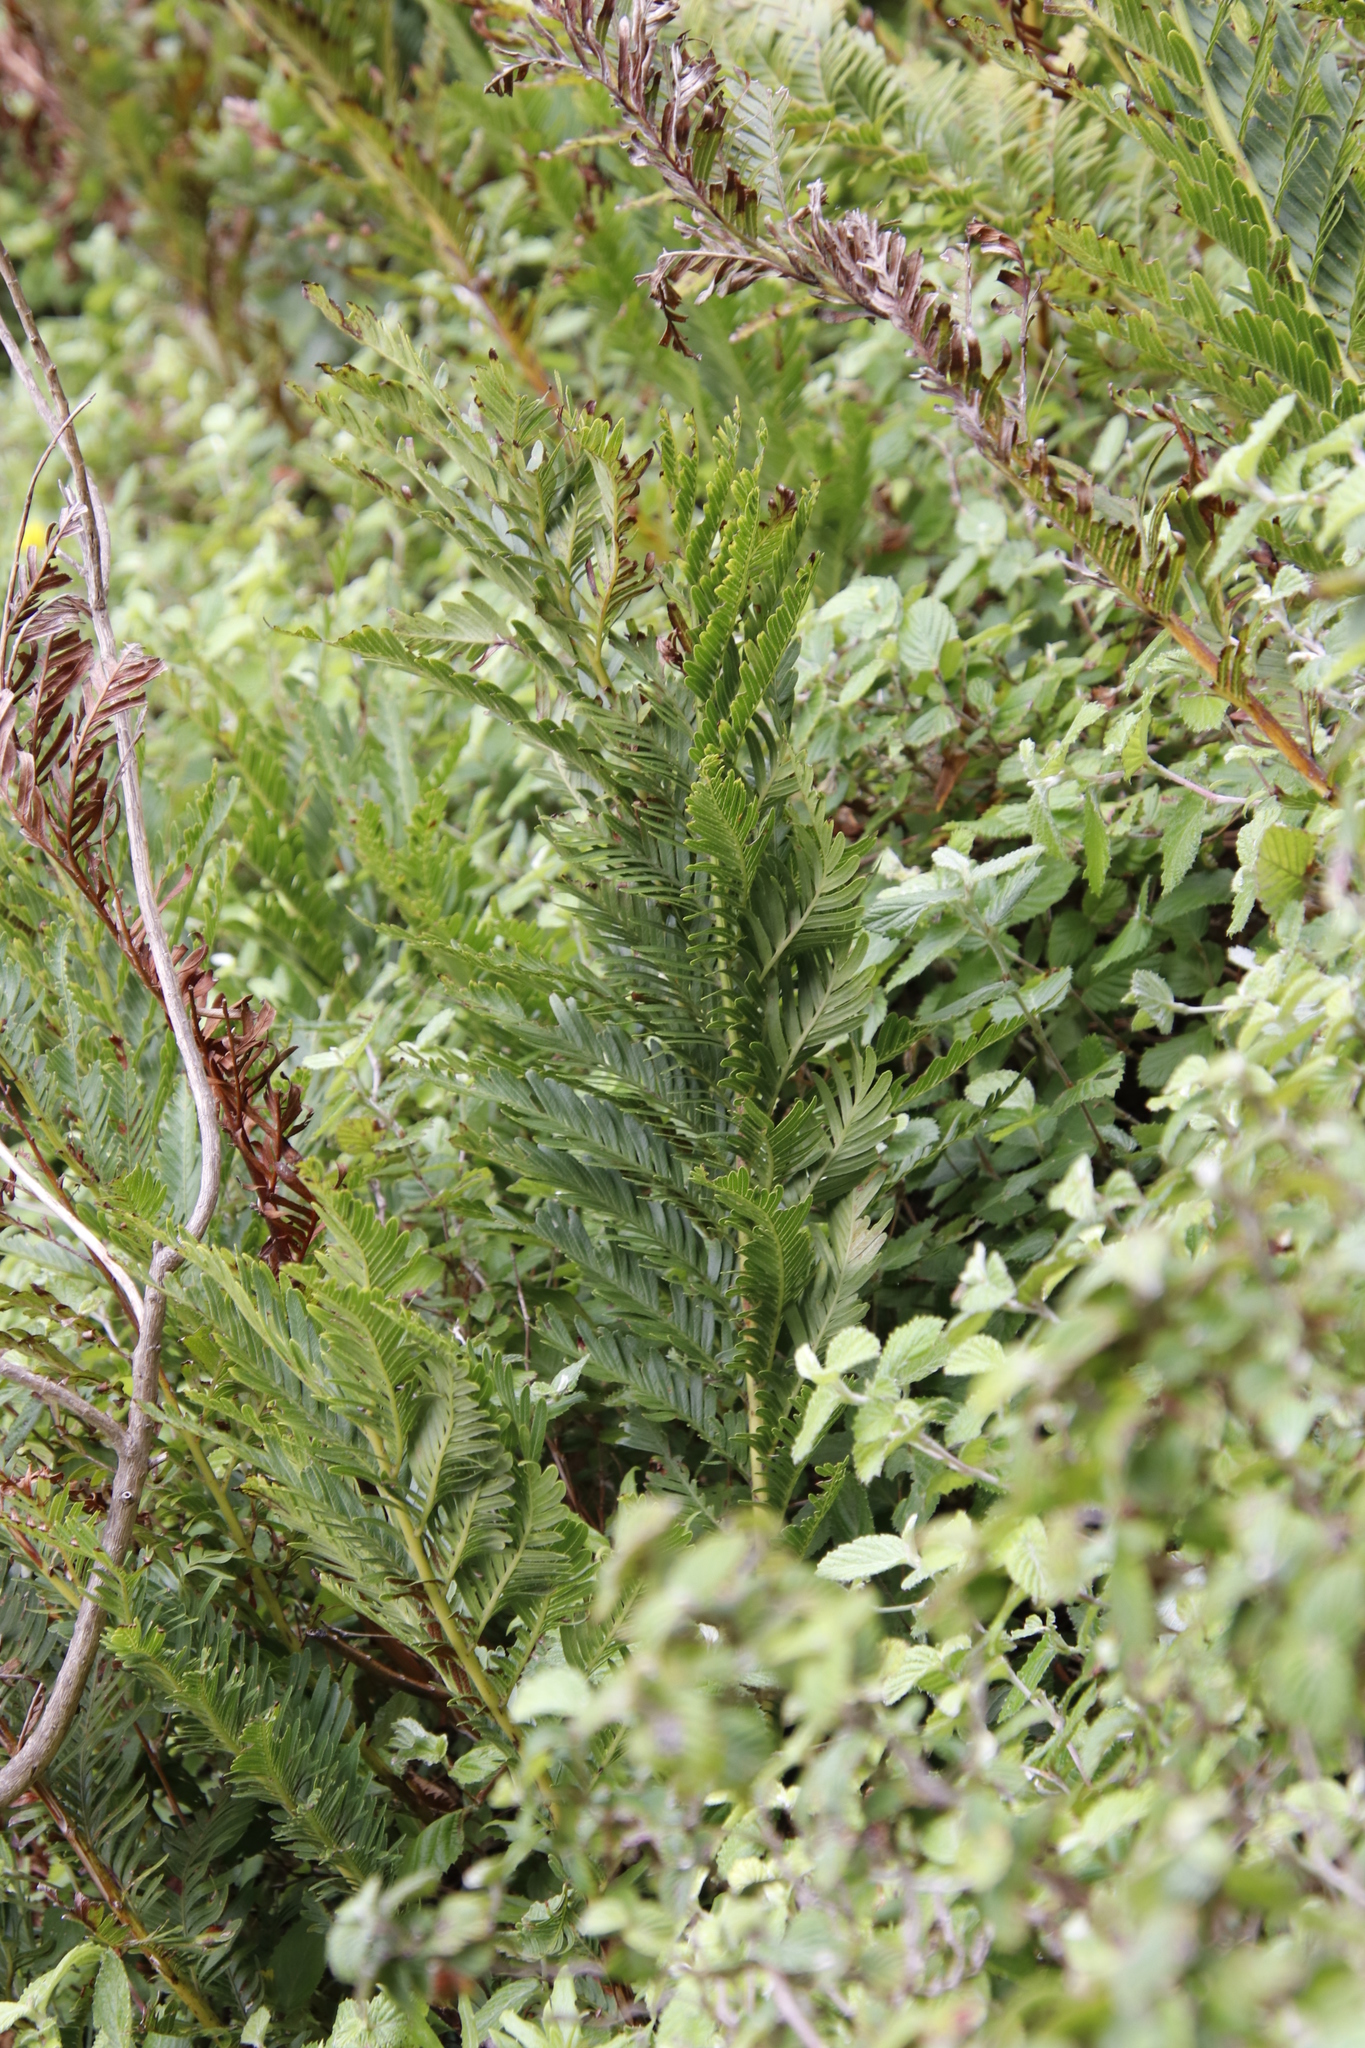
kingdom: Plantae
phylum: Tracheophyta
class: Polypodiopsida
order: Osmundales
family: Osmundaceae
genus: Todea
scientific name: Todea barbara
